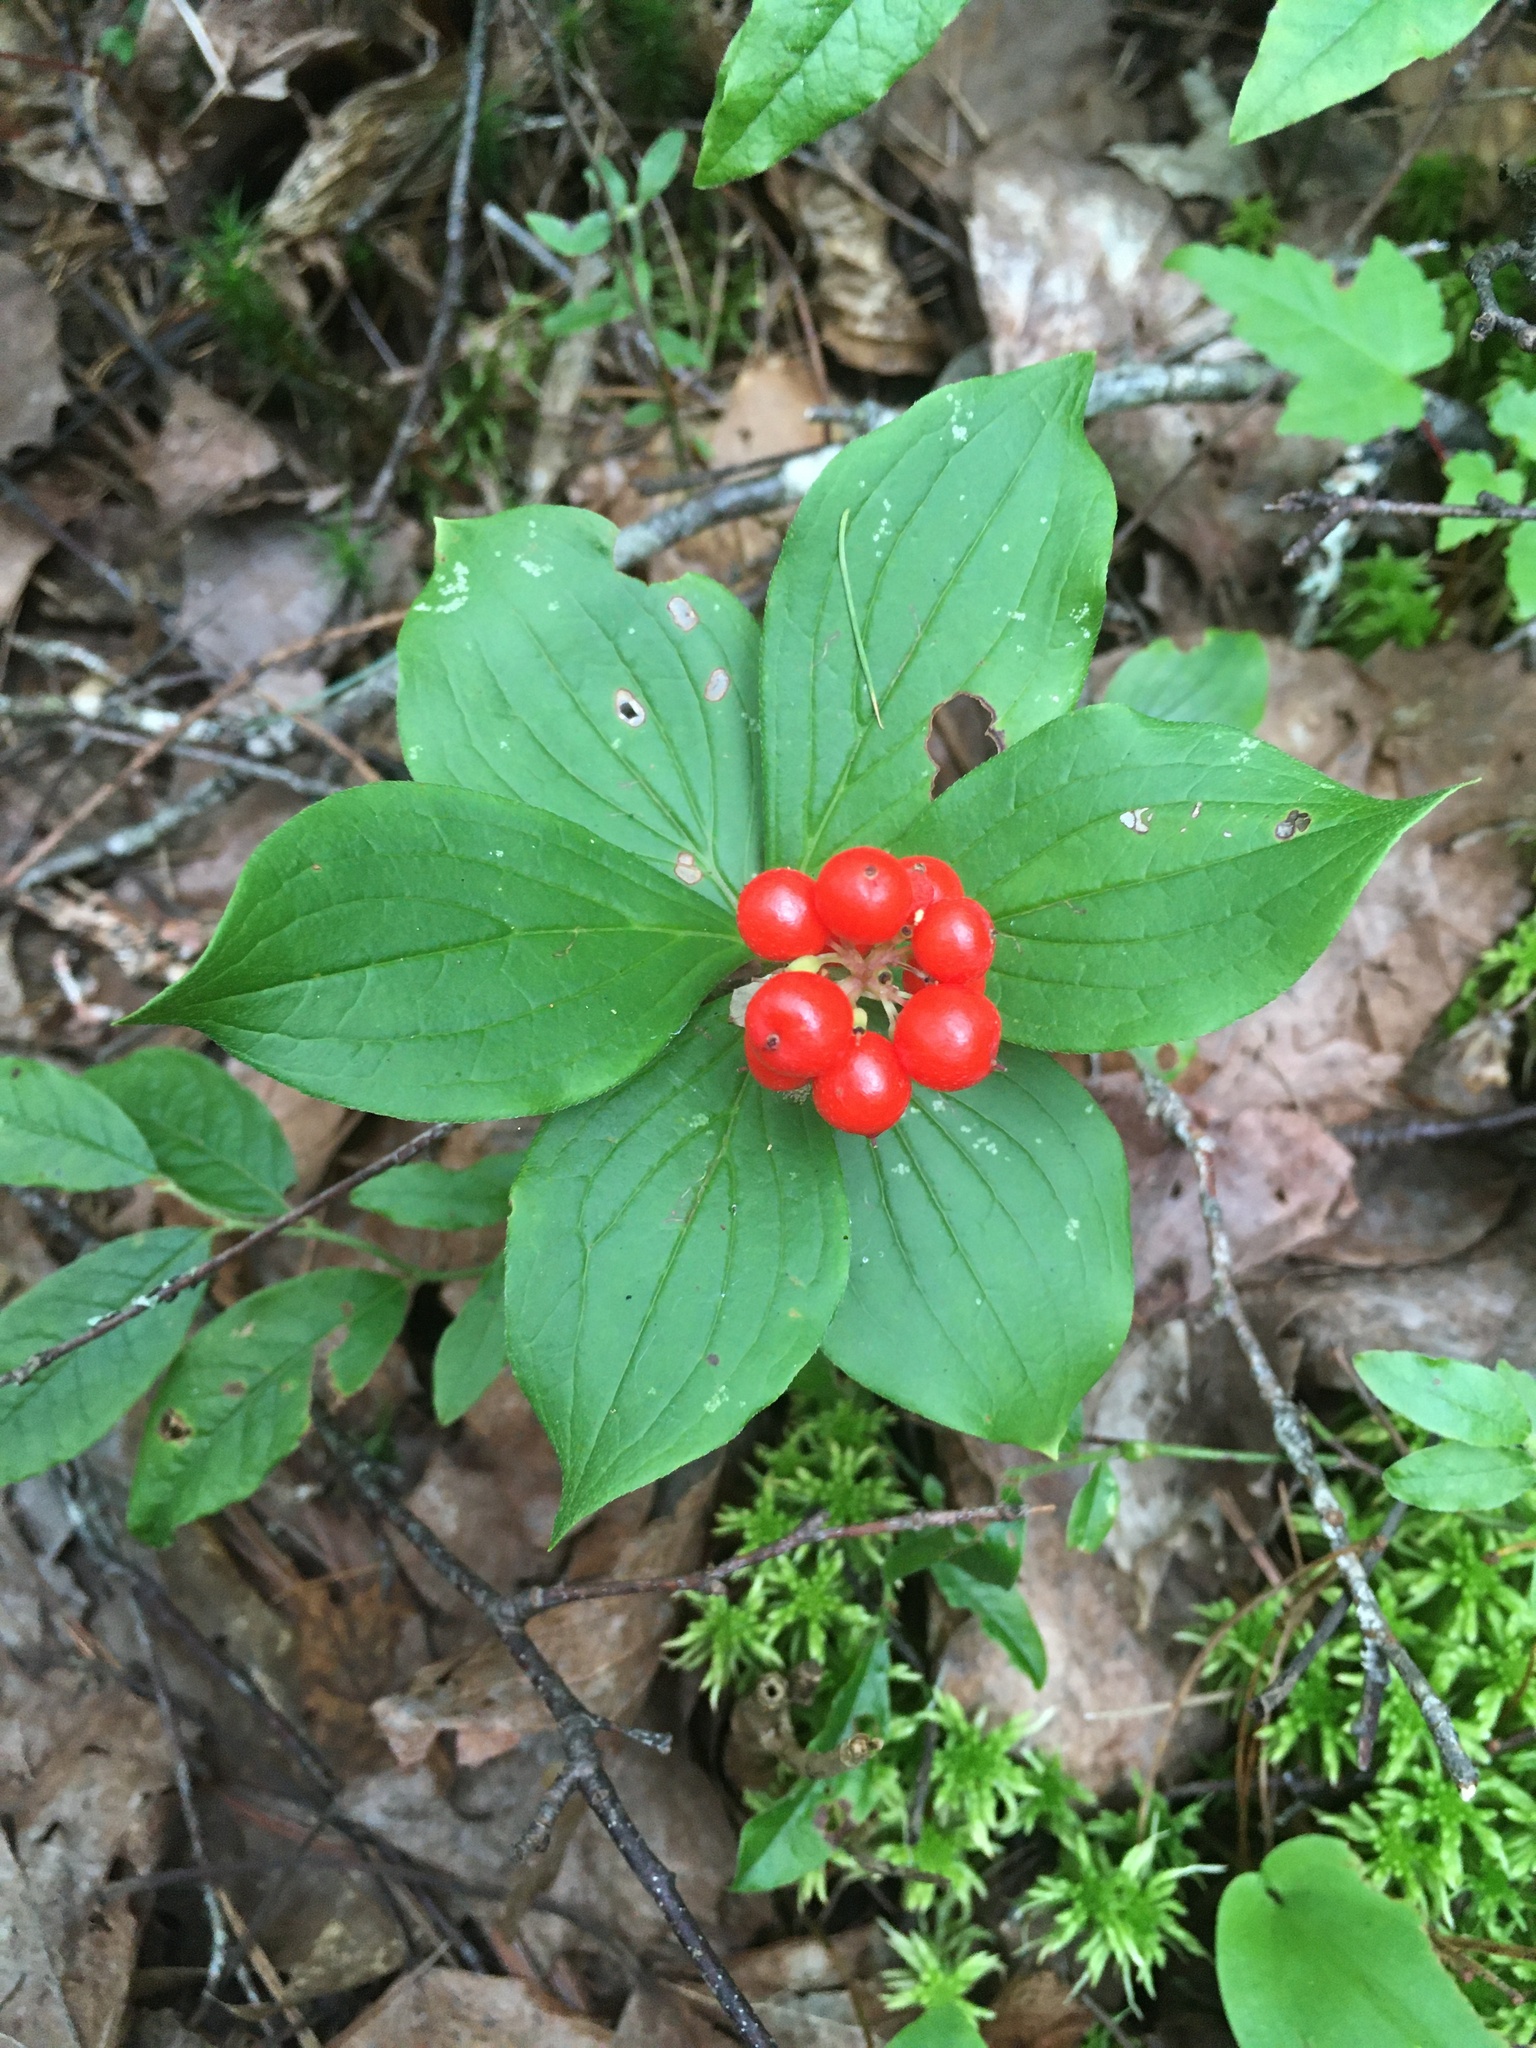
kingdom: Plantae
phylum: Tracheophyta
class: Magnoliopsida
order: Cornales
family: Cornaceae
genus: Cornus
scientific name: Cornus canadensis
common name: Creeping dogwood
